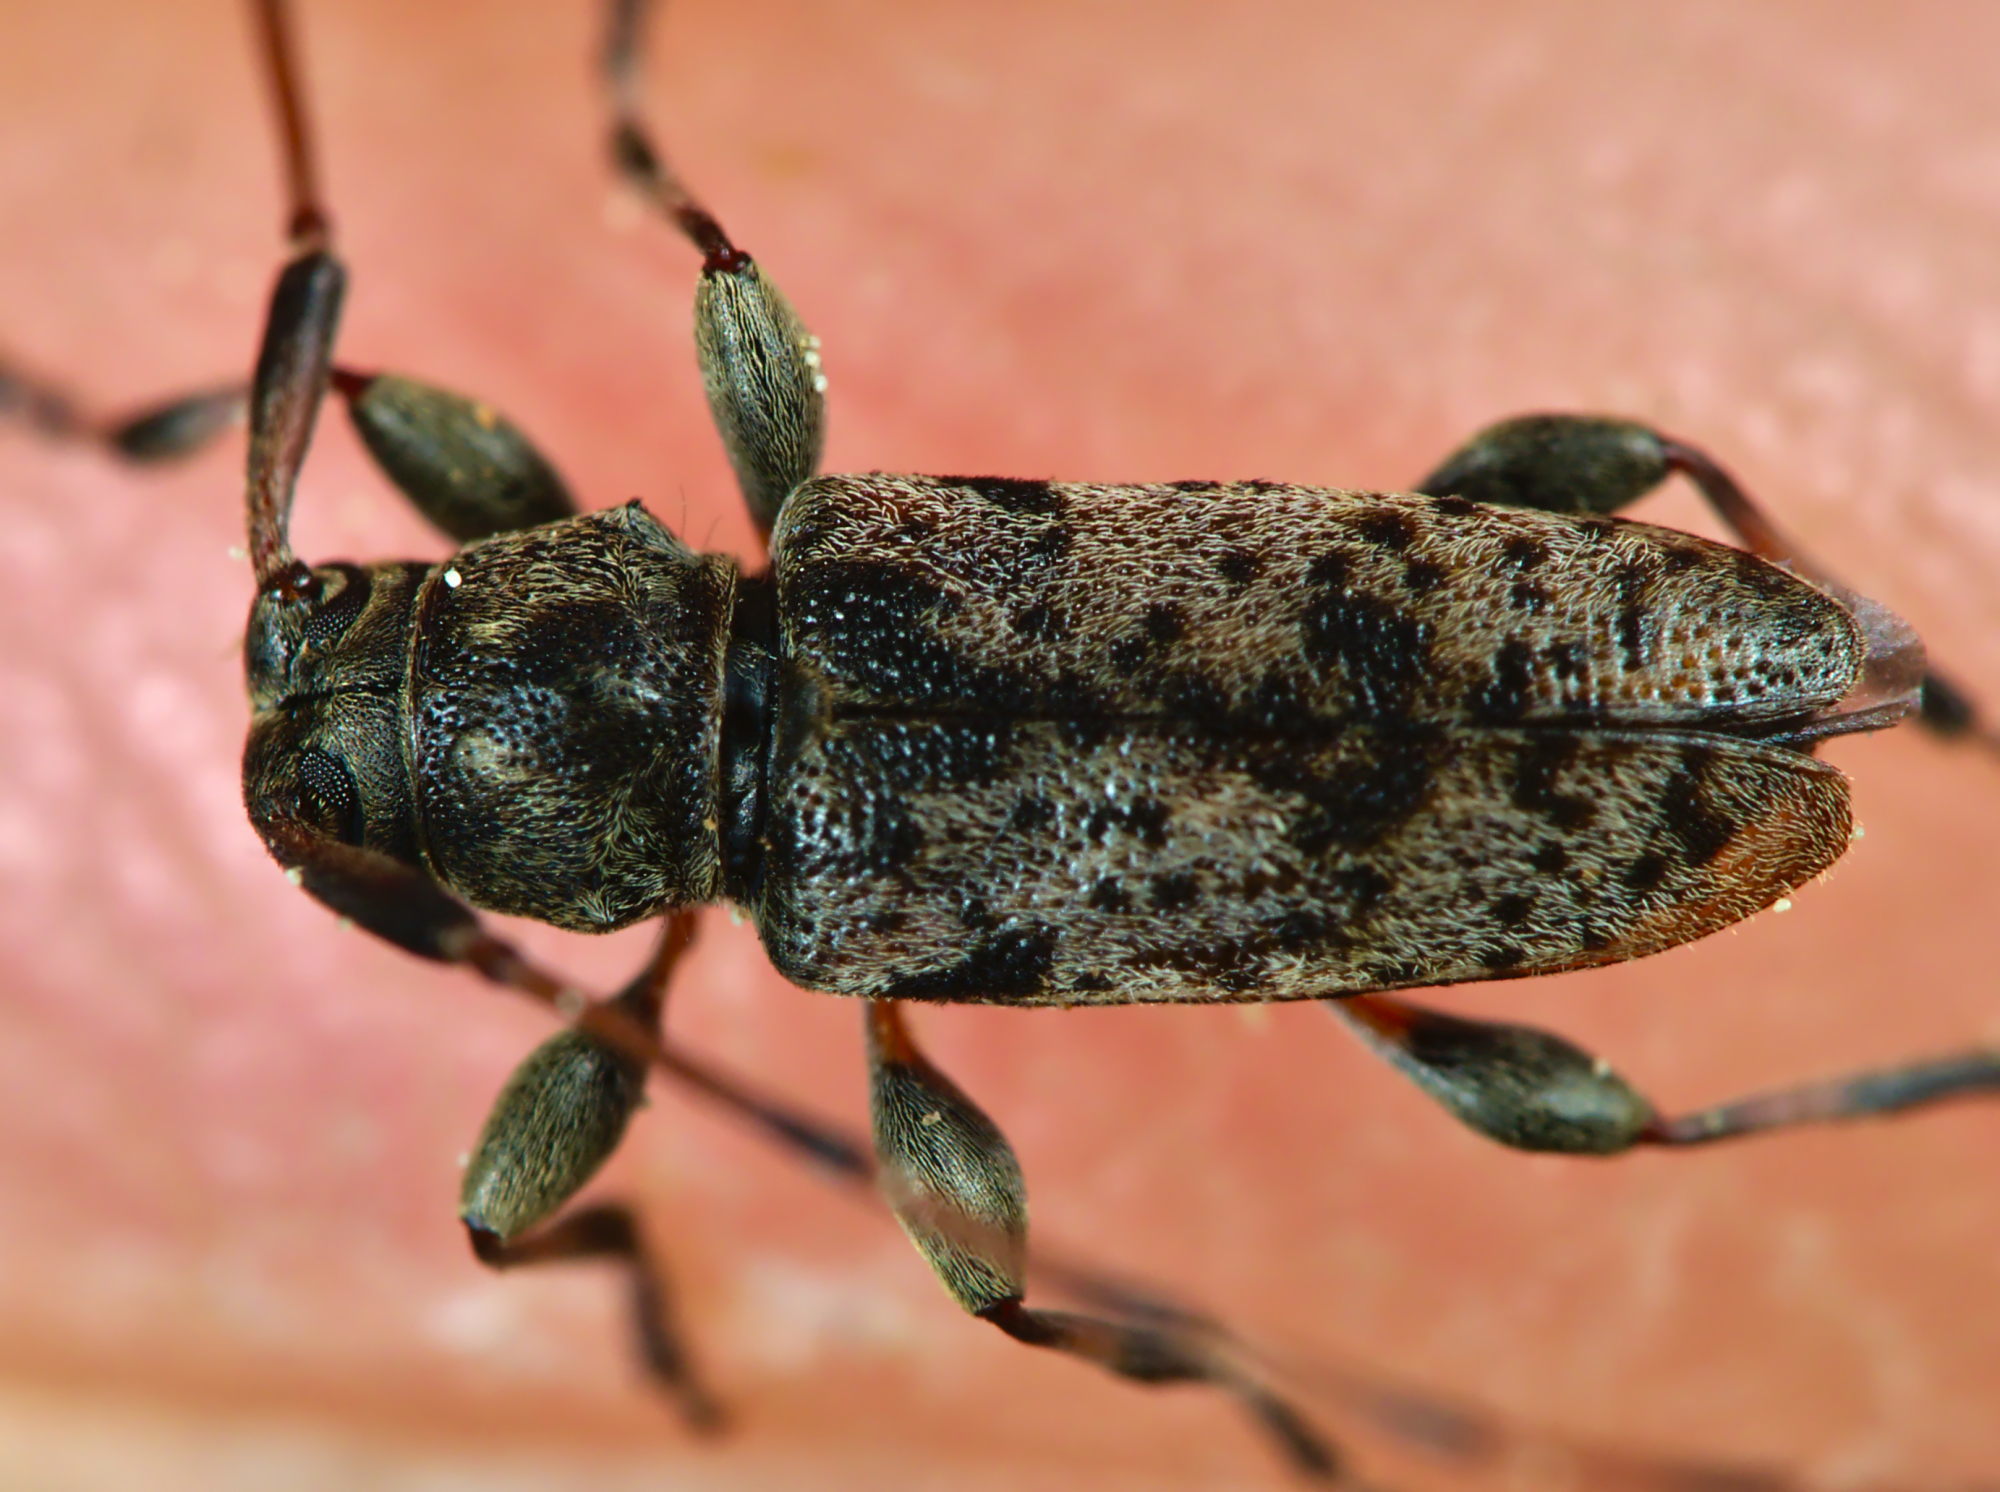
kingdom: Animalia
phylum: Arthropoda
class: Insecta
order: Coleoptera
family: Cerambycidae
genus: Leiopus
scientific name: Leiopus femoratus
